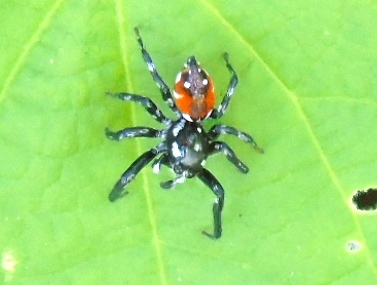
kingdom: Animalia
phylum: Arthropoda
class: Arachnida
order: Araneae
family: Salticidae
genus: Nycerella
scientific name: Nycerella
